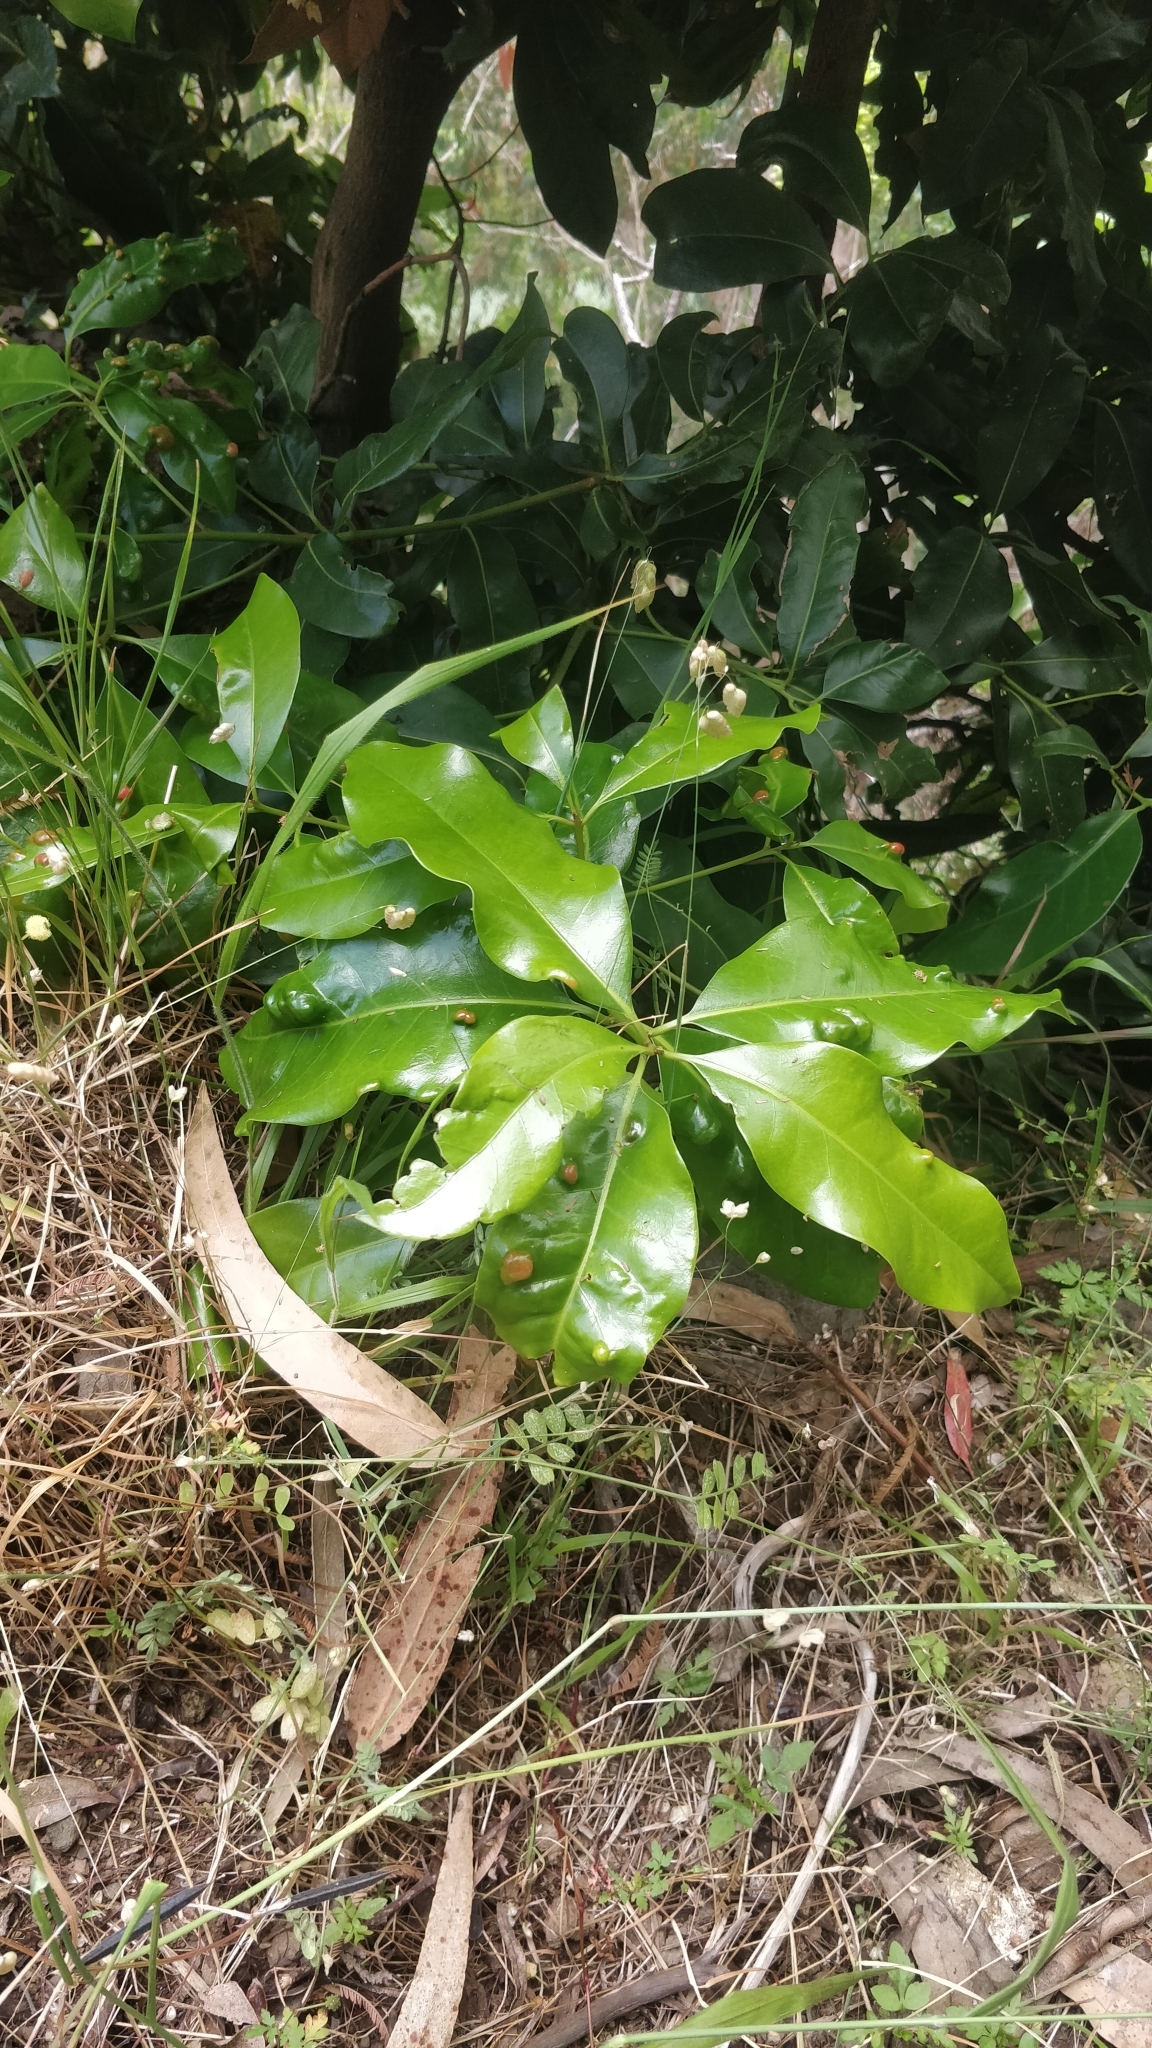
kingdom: Plantae
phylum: Tracheophyta
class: Magnoliopsida
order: Laurales
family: Lauraceae
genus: Apollonias
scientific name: Apollonias barbujana
